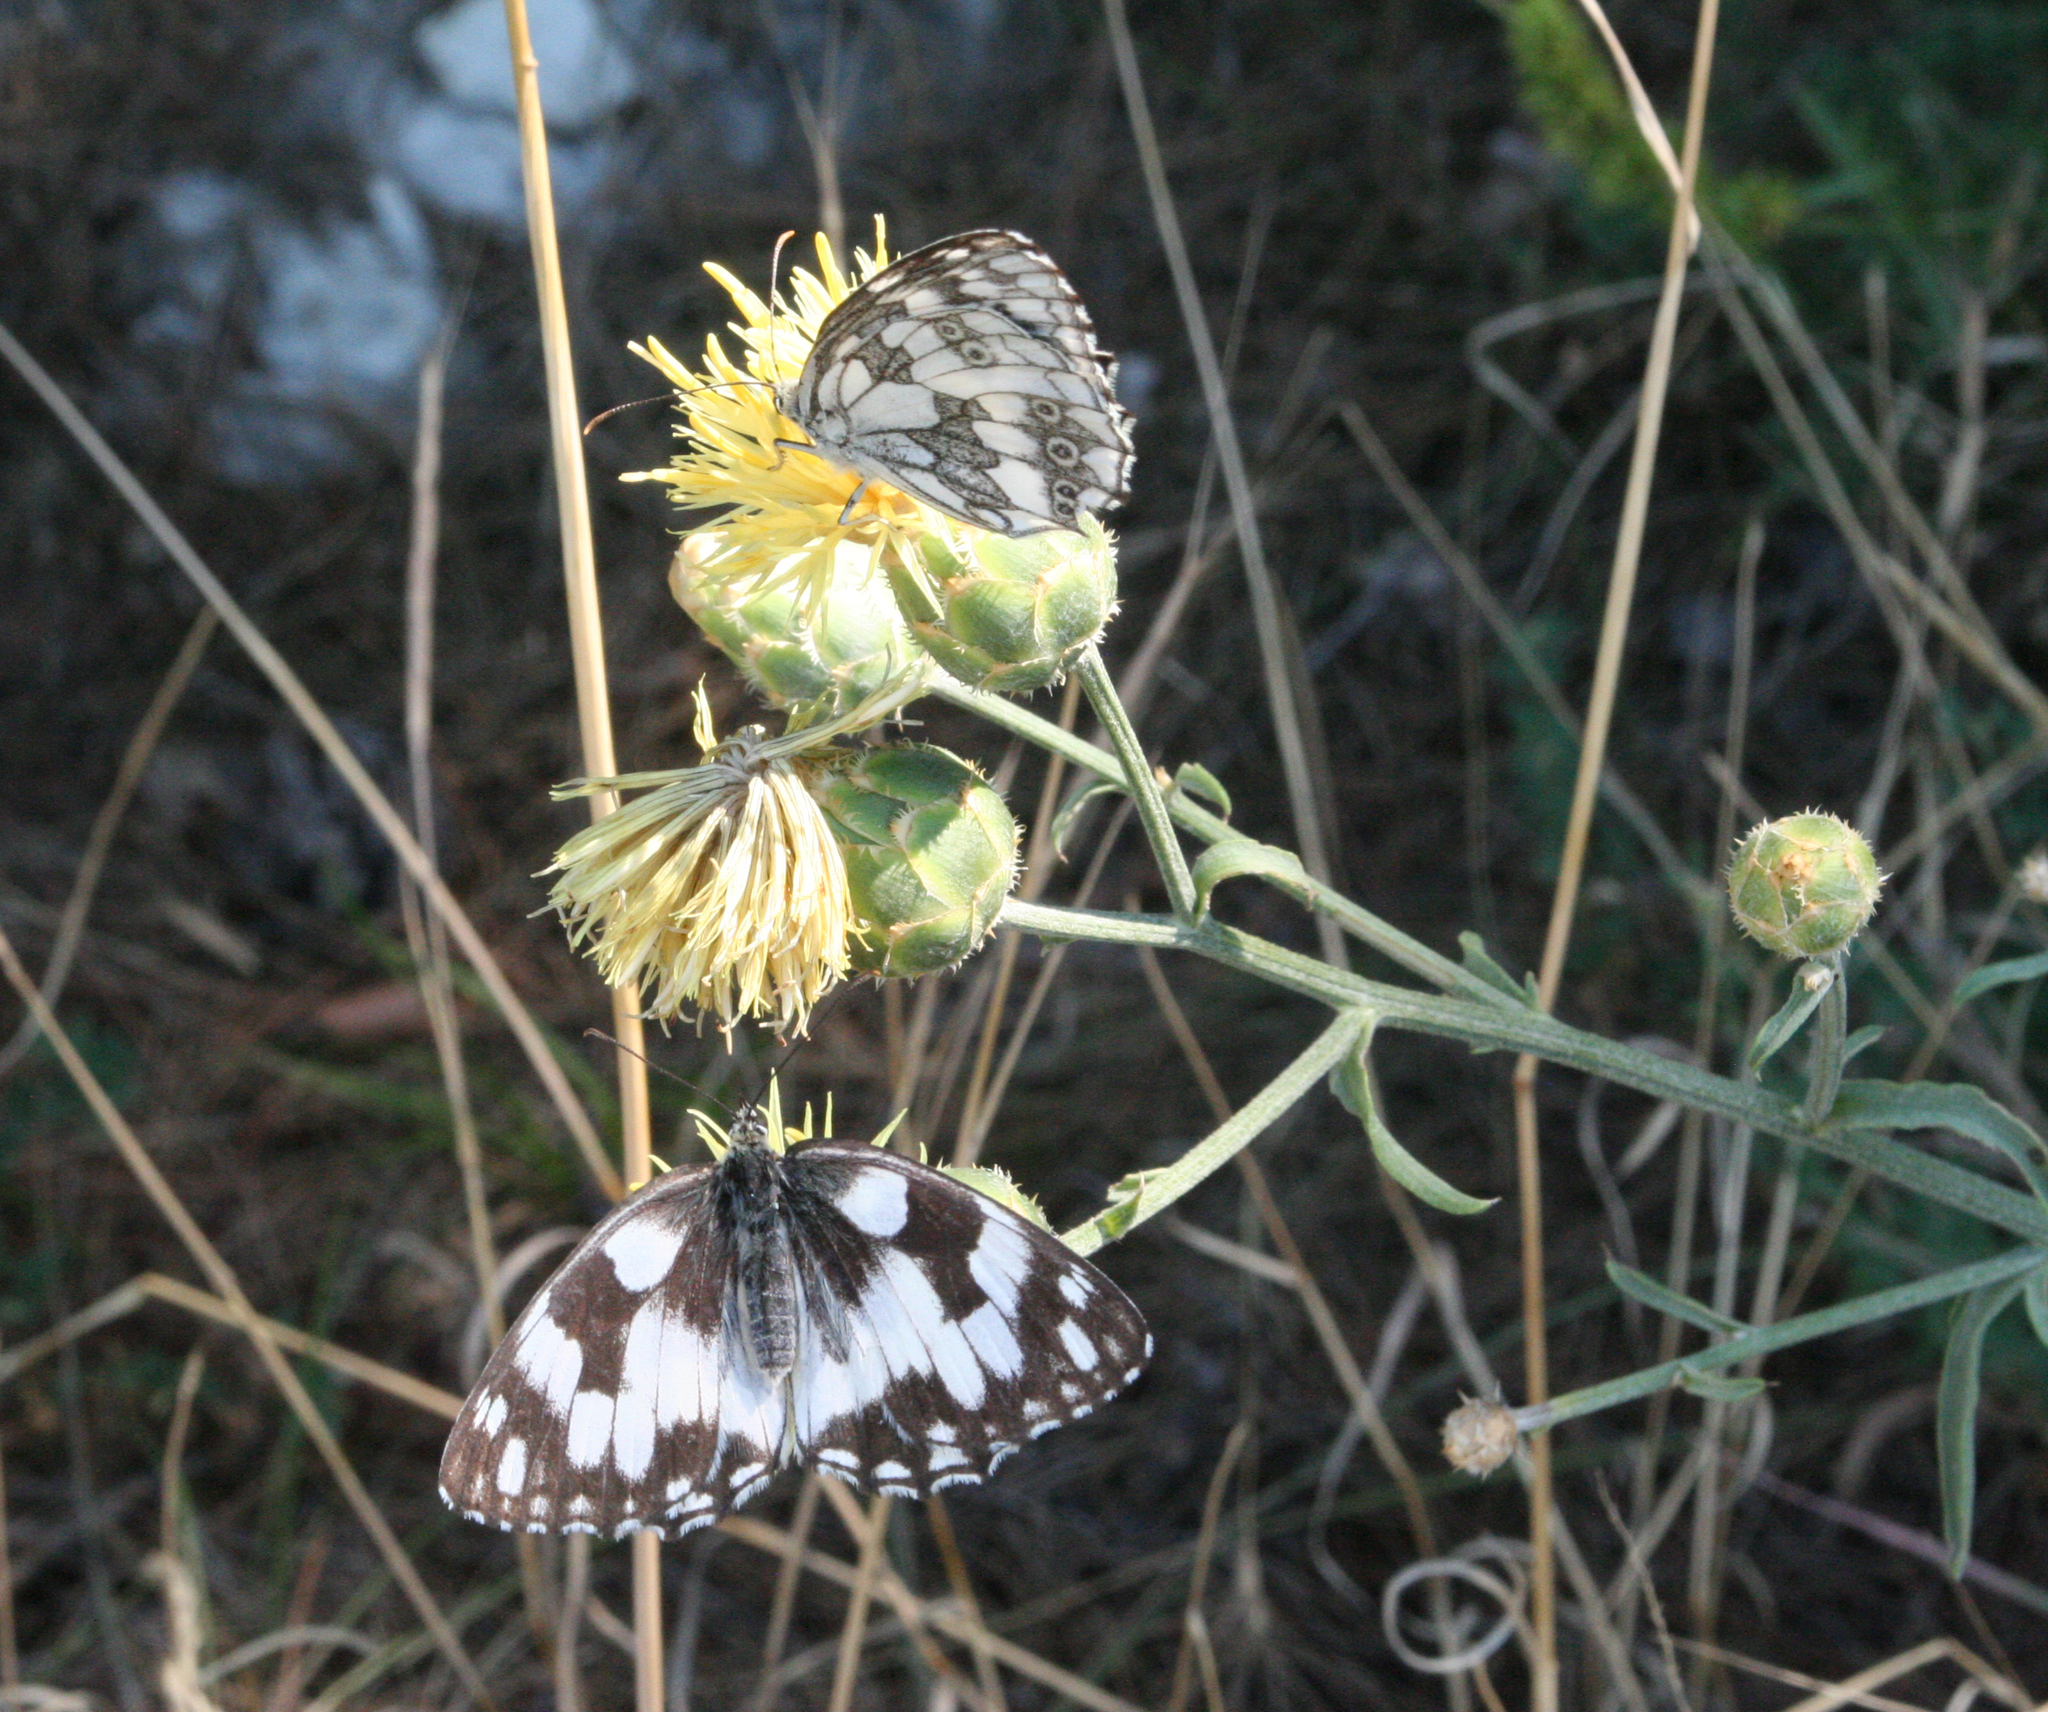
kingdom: Animalia
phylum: Arthropoda
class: Insecta
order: Lepidoptera
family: Nymphalidae
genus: Melanargia
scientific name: Melanargia galathea
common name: Marbled white
